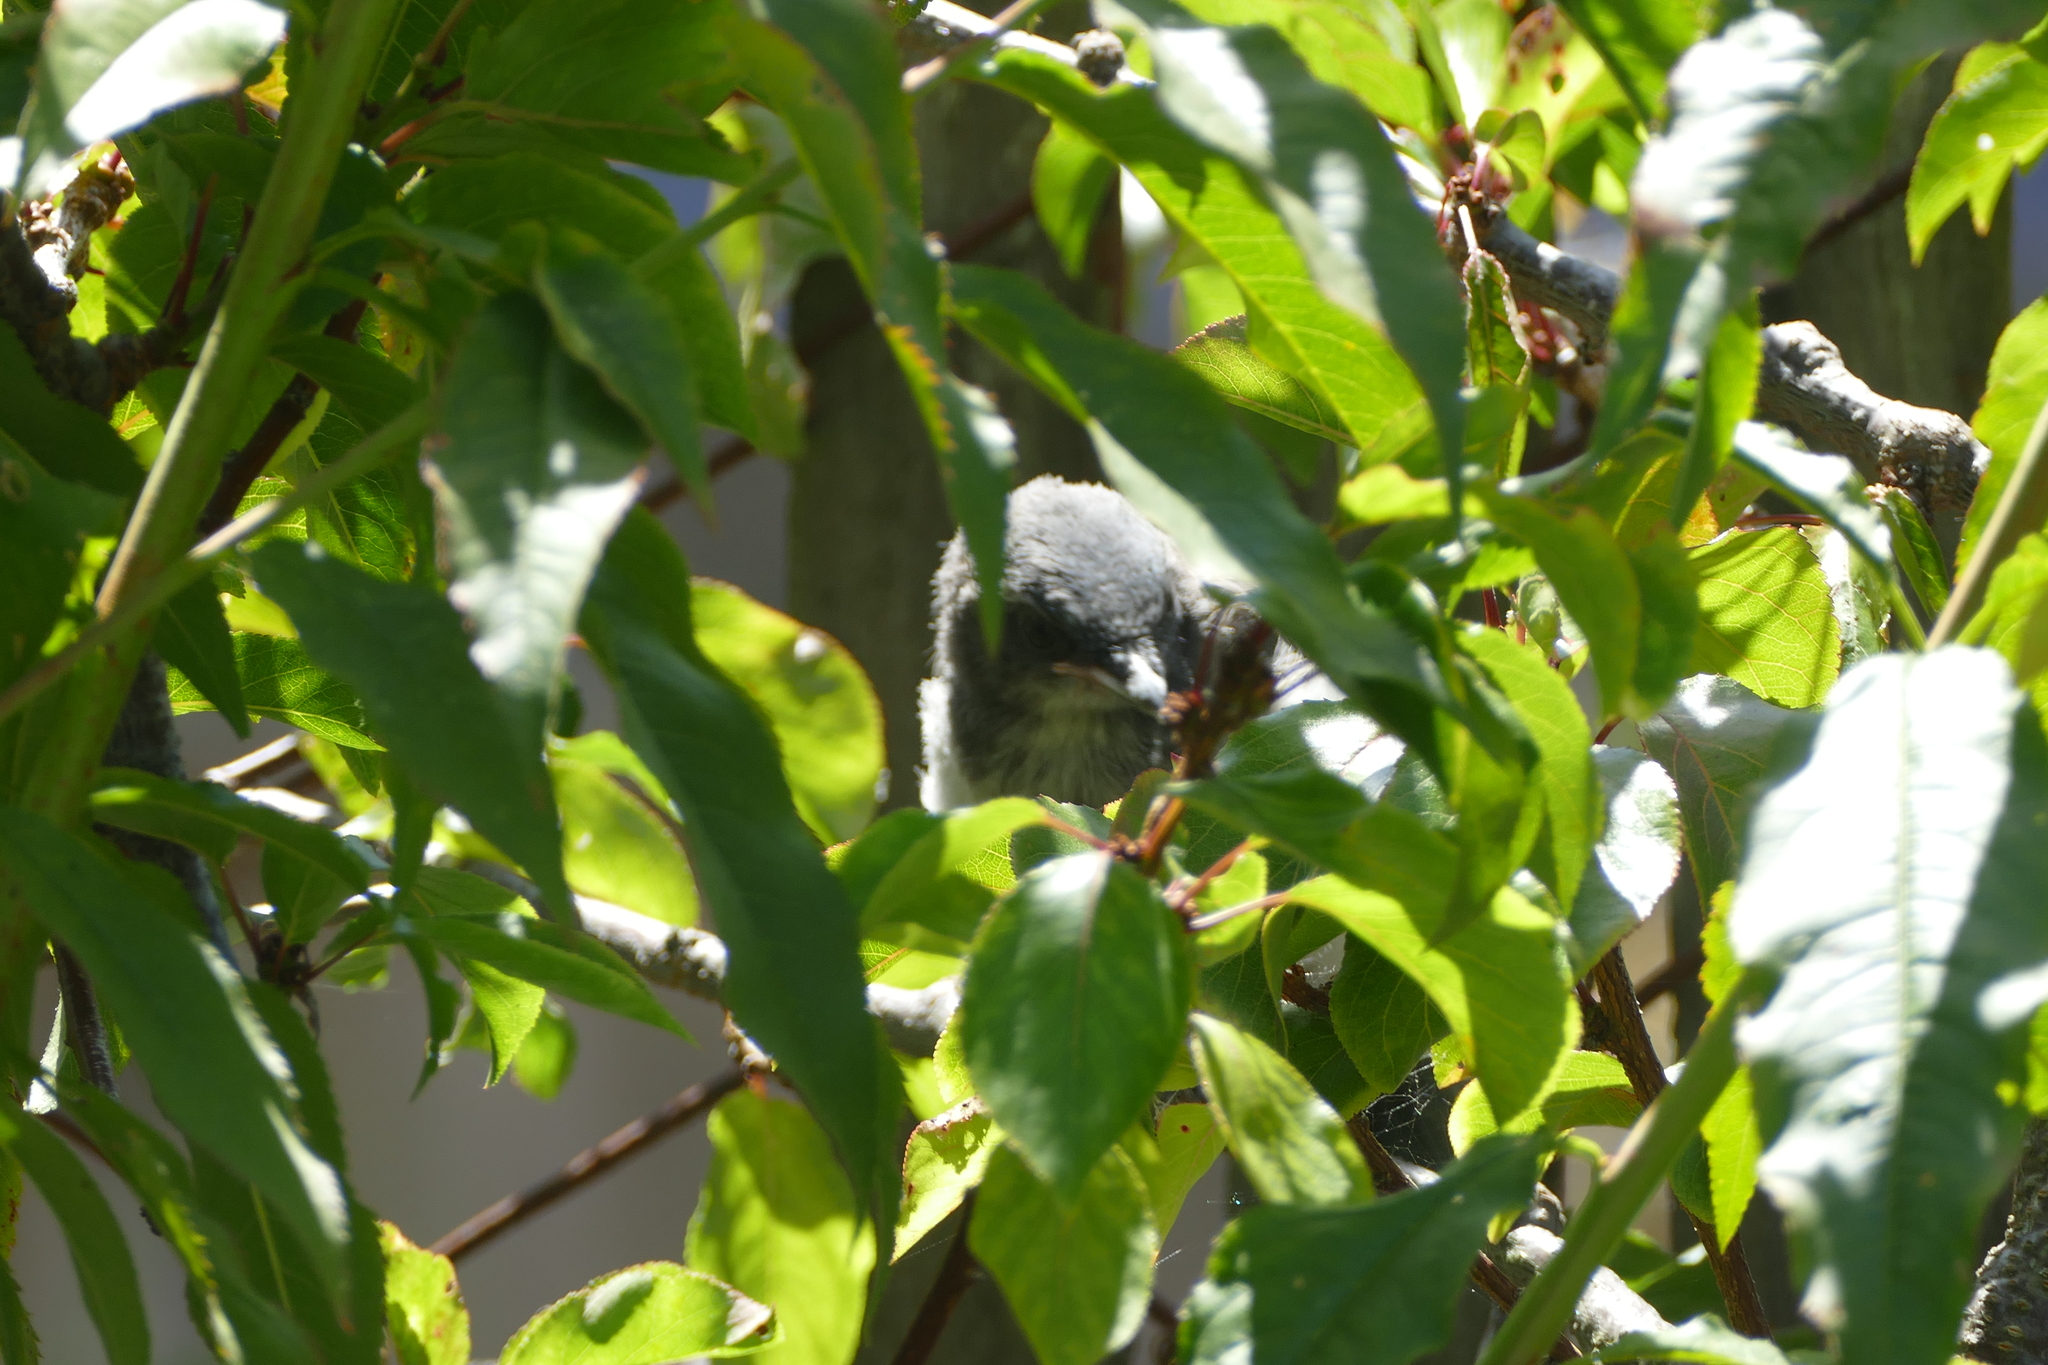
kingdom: Animalia
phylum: Chordata
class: Aves
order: Passeriformes
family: Corvidae
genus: Aphelocoma
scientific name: Aphelocoma californica
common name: California scrub-jay
